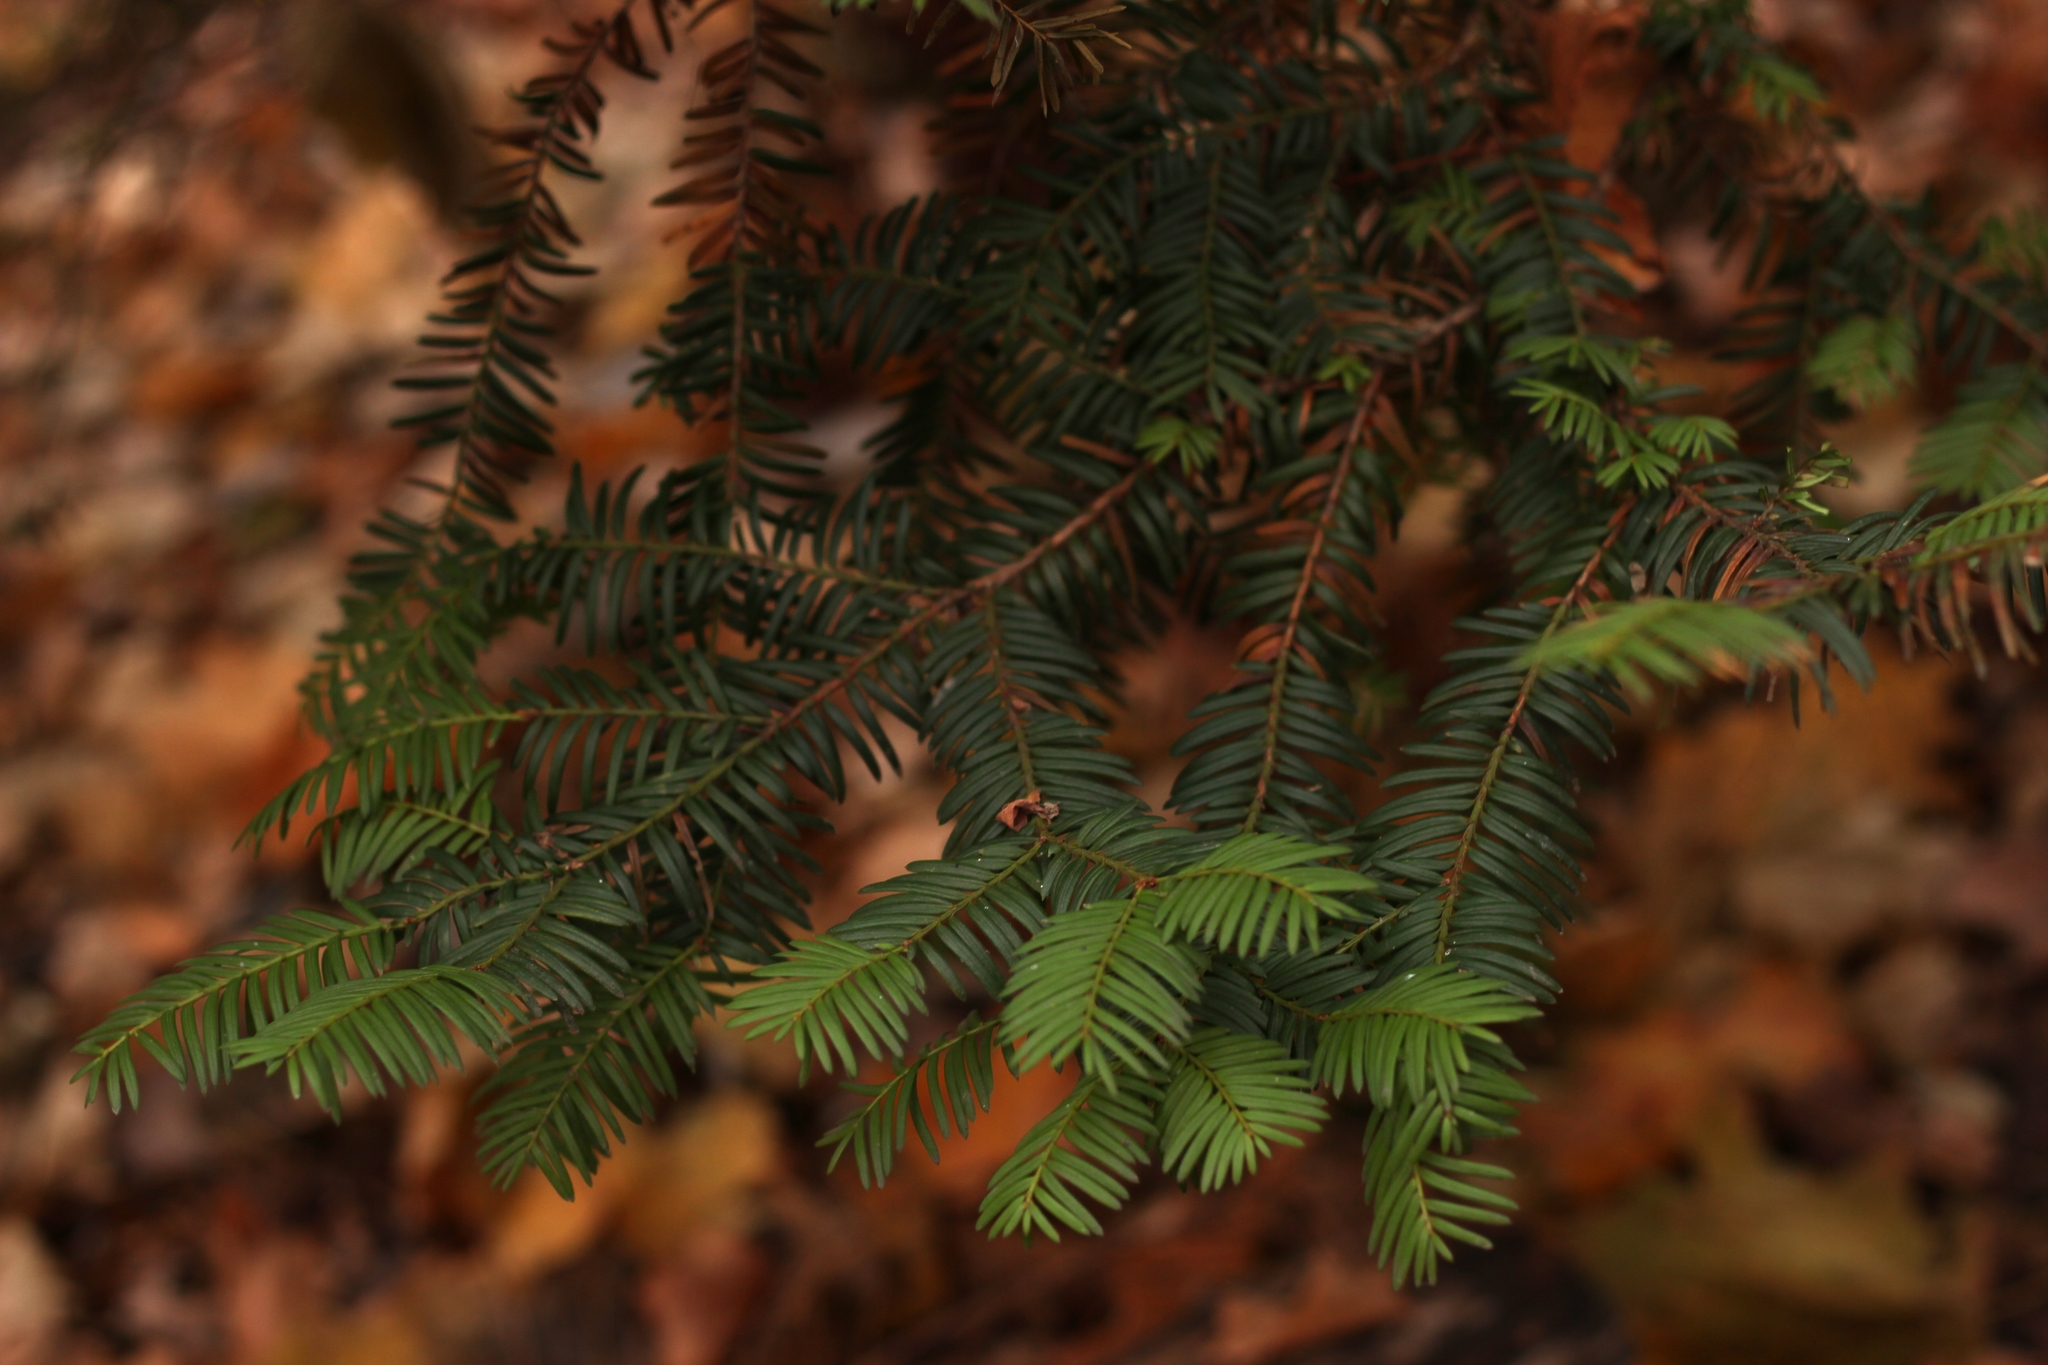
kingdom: Plantae
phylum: Tracheophyta
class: Pinopsida
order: Pinales
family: Taxaceae
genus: Taxus
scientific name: Taxus baccata
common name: Yew
